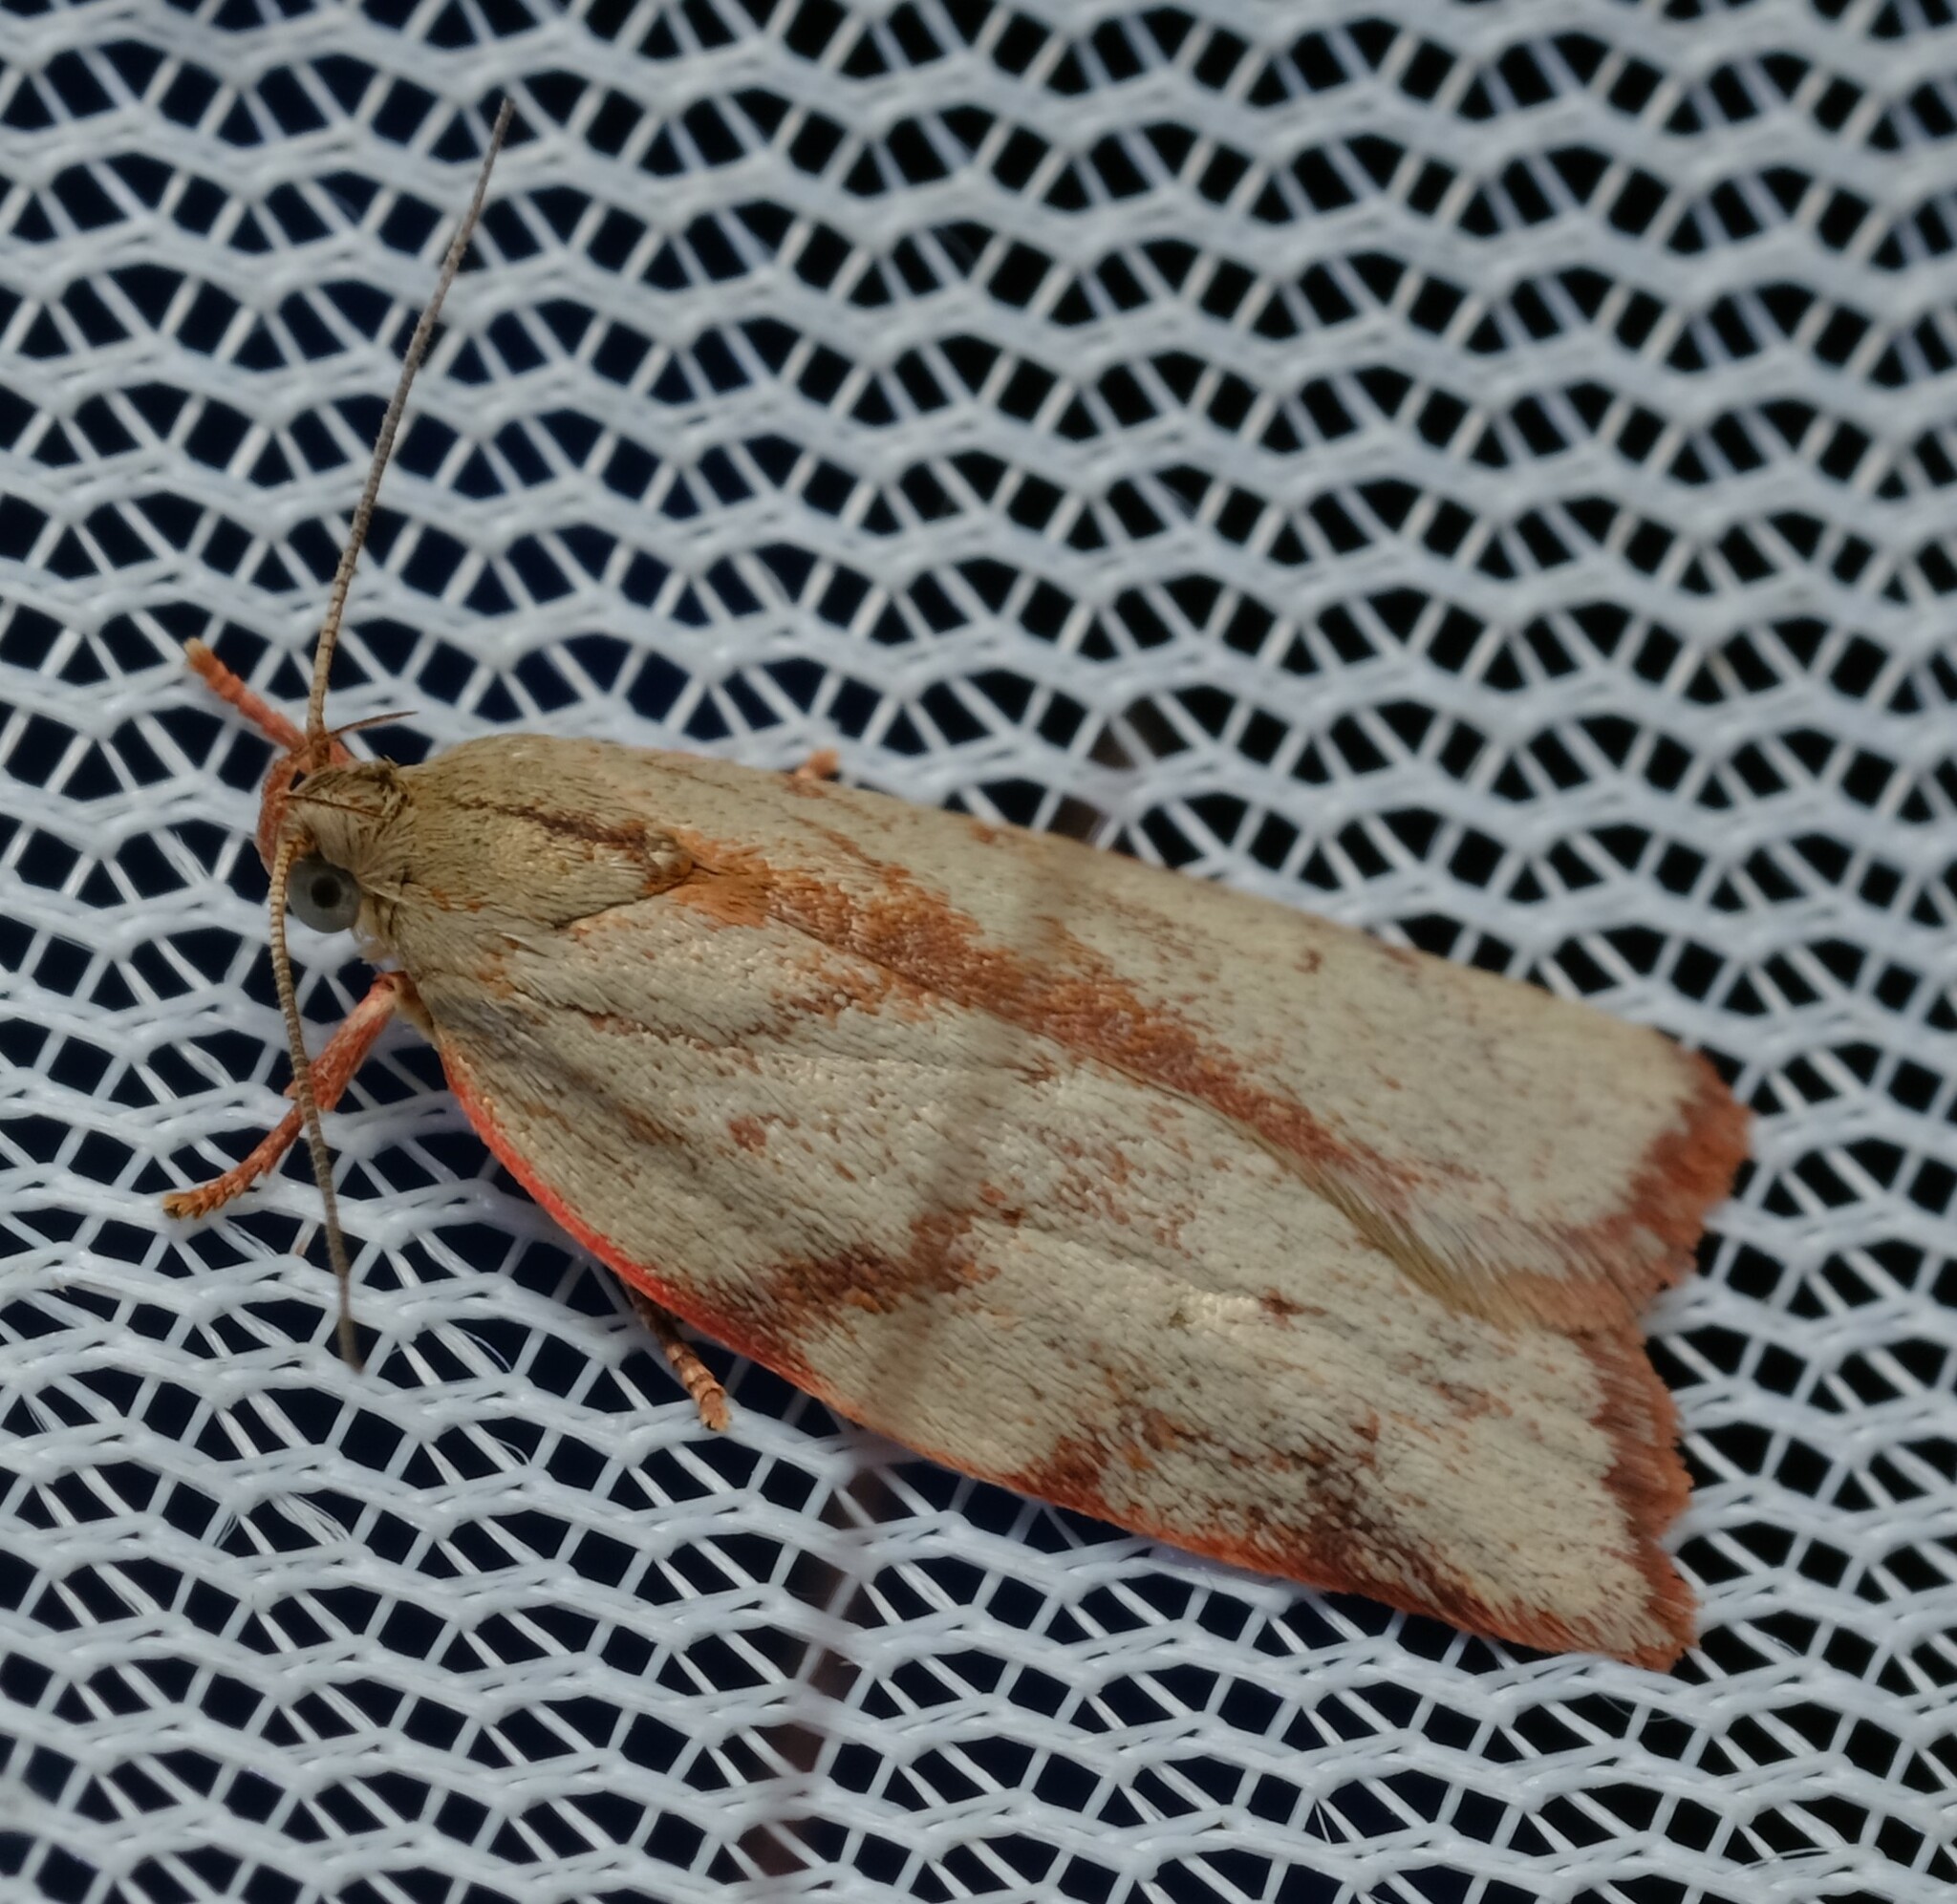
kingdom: Animalia
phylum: Arthropoda
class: Insecta
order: Lepidoptera
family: Oecophoridae
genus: Euchaetis
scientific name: Euchaetis inceptella
